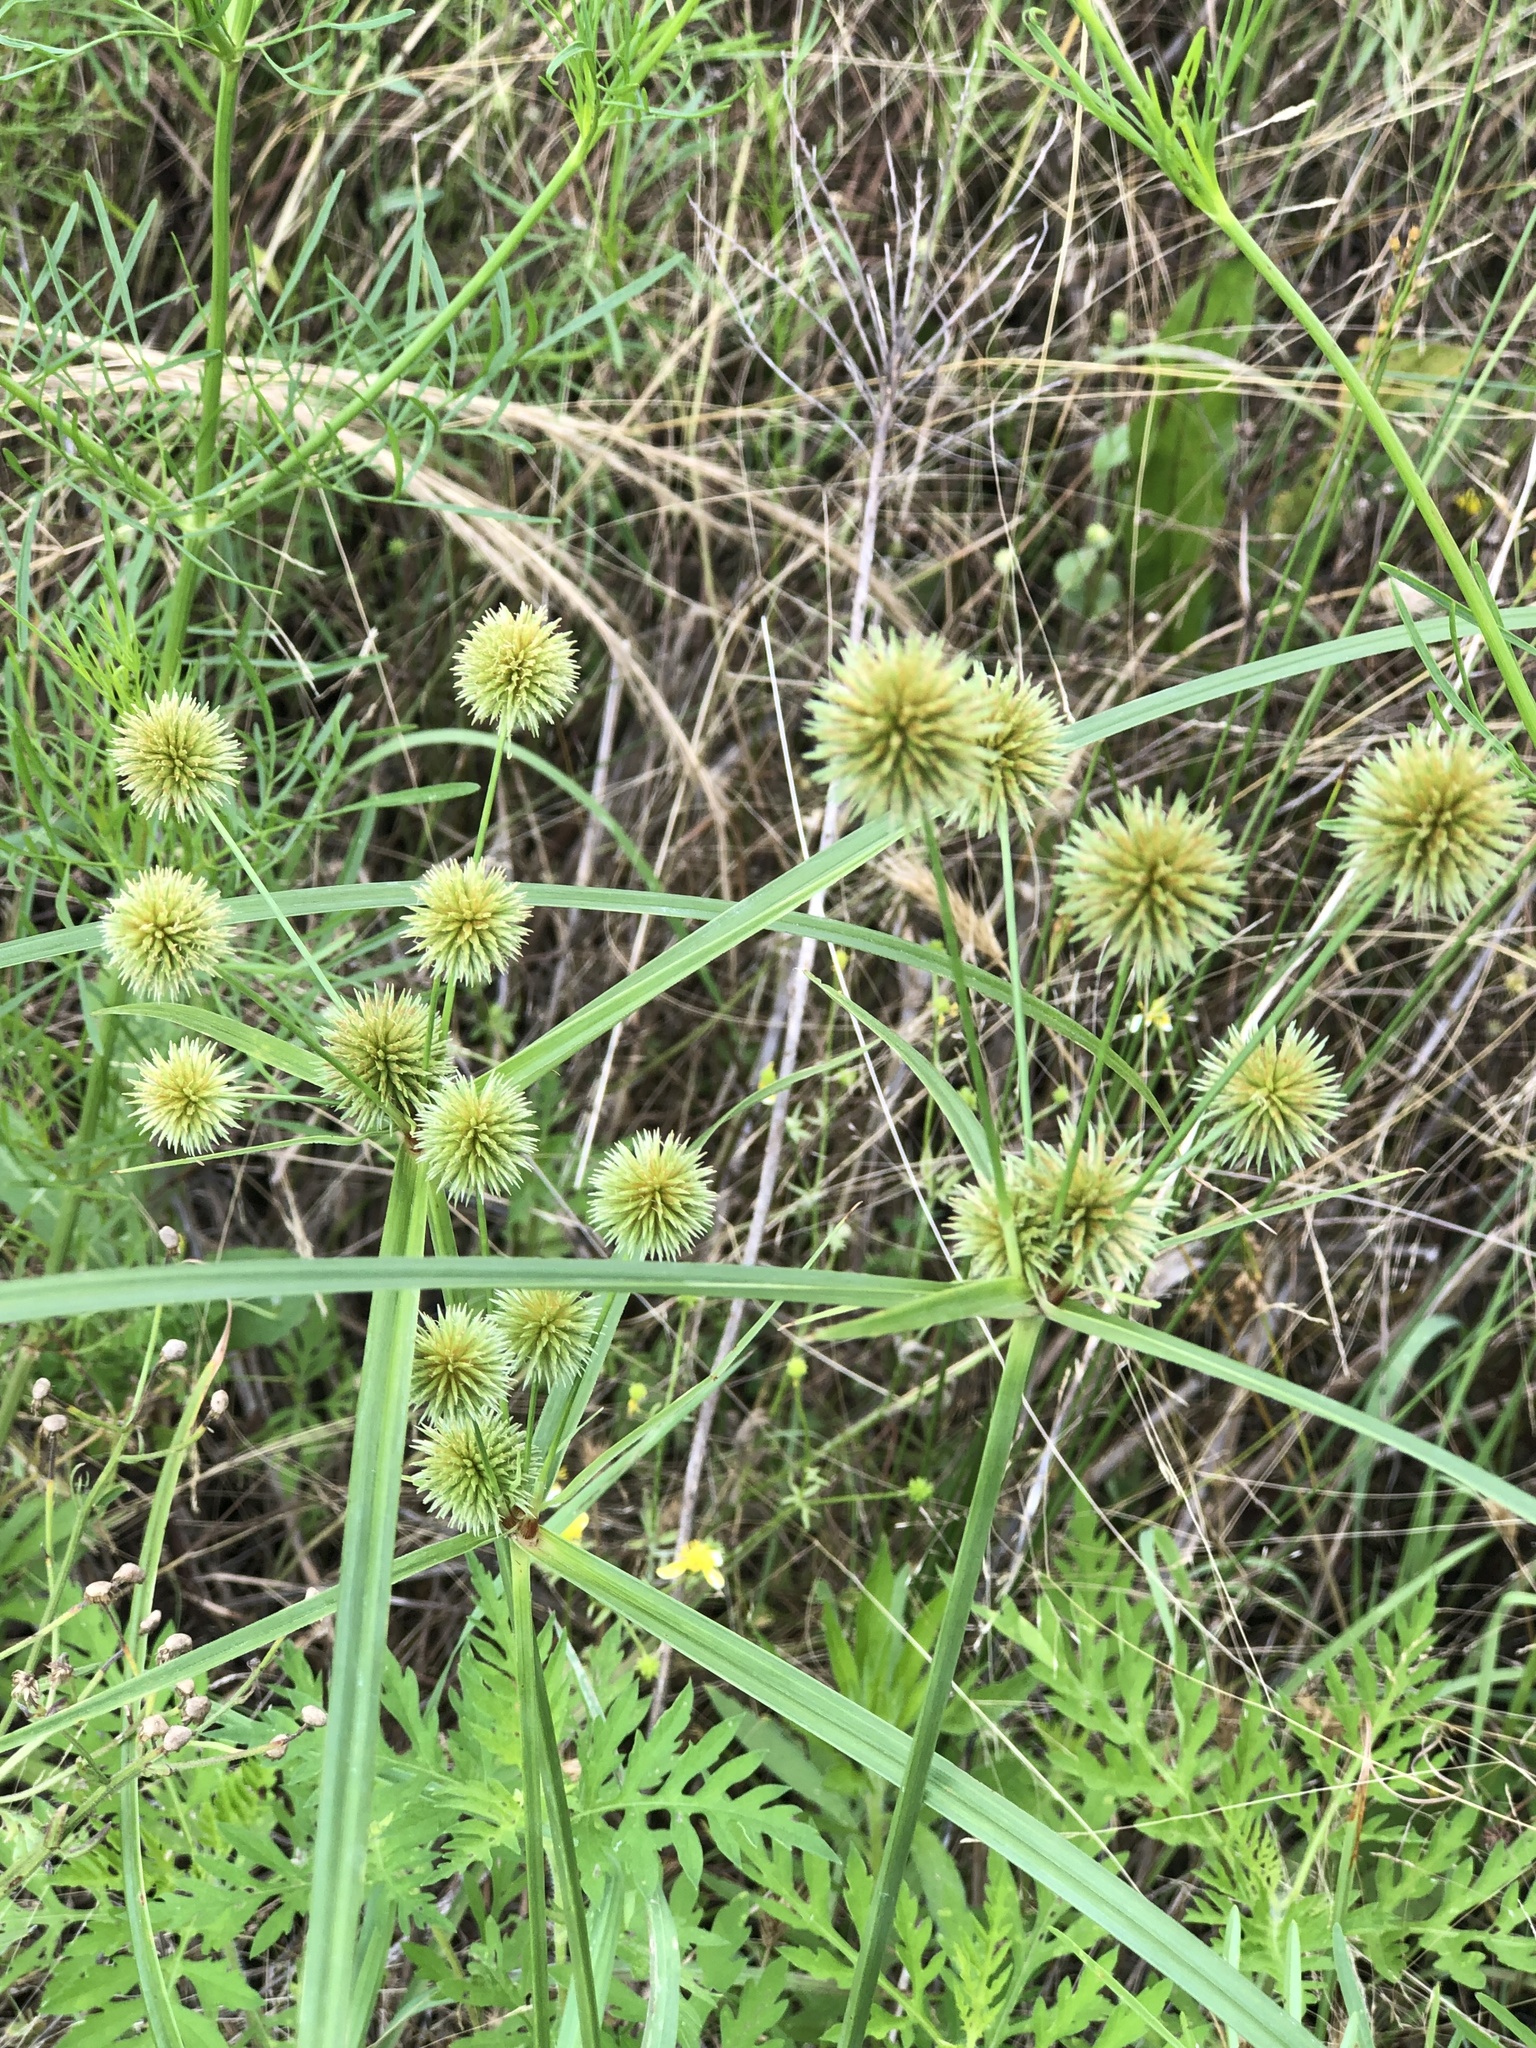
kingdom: Plantae
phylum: Tracheophyta
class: Liliopsida
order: Poales
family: Cyperaceae
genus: Cyperus
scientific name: Cyperus echinatus
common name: Teasel sedge
